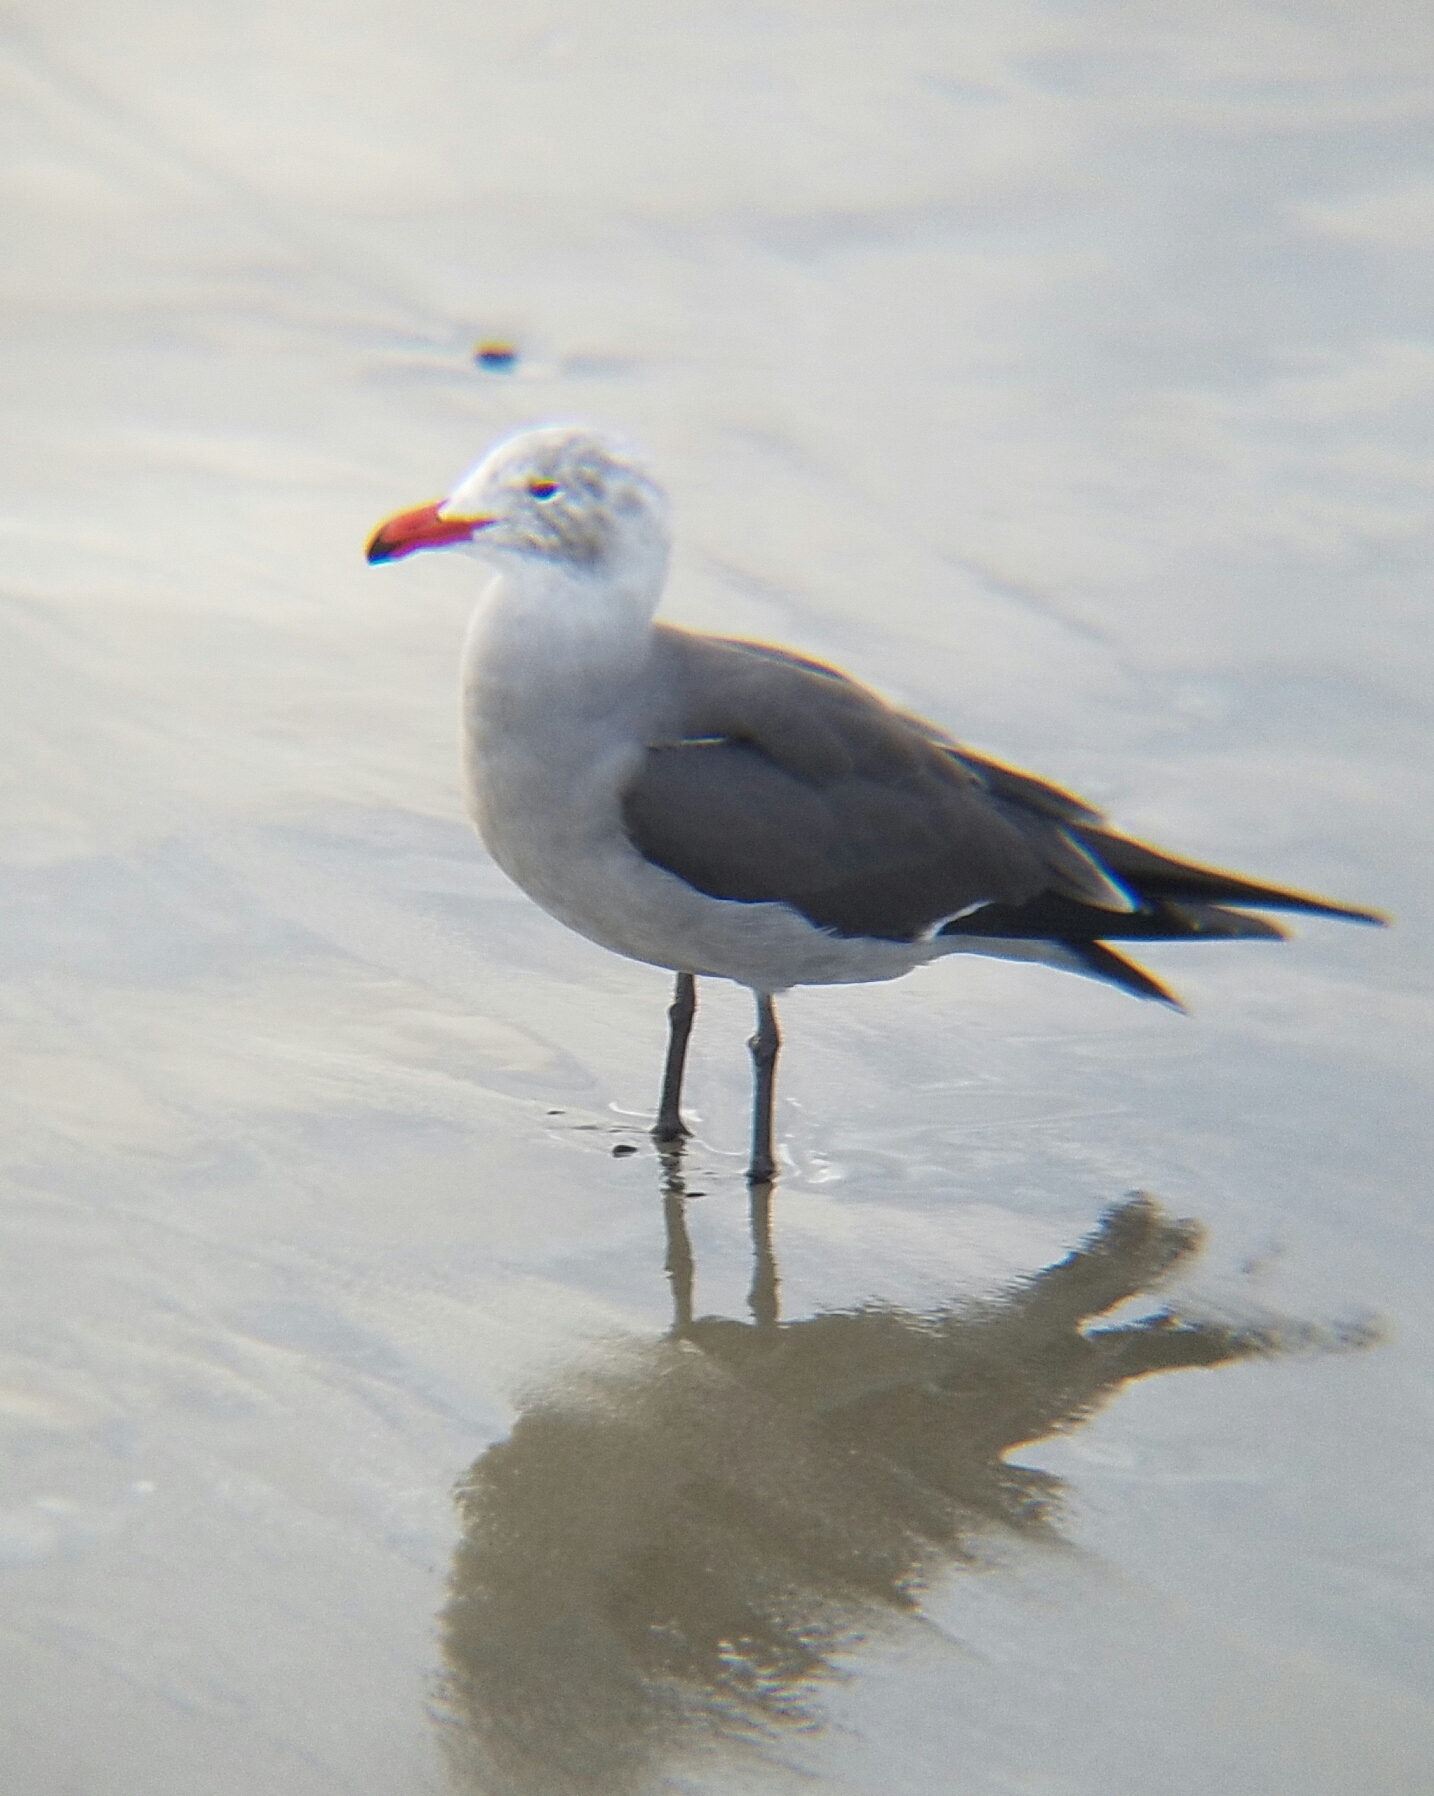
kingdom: Animalia
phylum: Chordata
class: Aves
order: Charadriiformes
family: Laridae
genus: Larus
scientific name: Larus heermanni
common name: Heermann's gull
